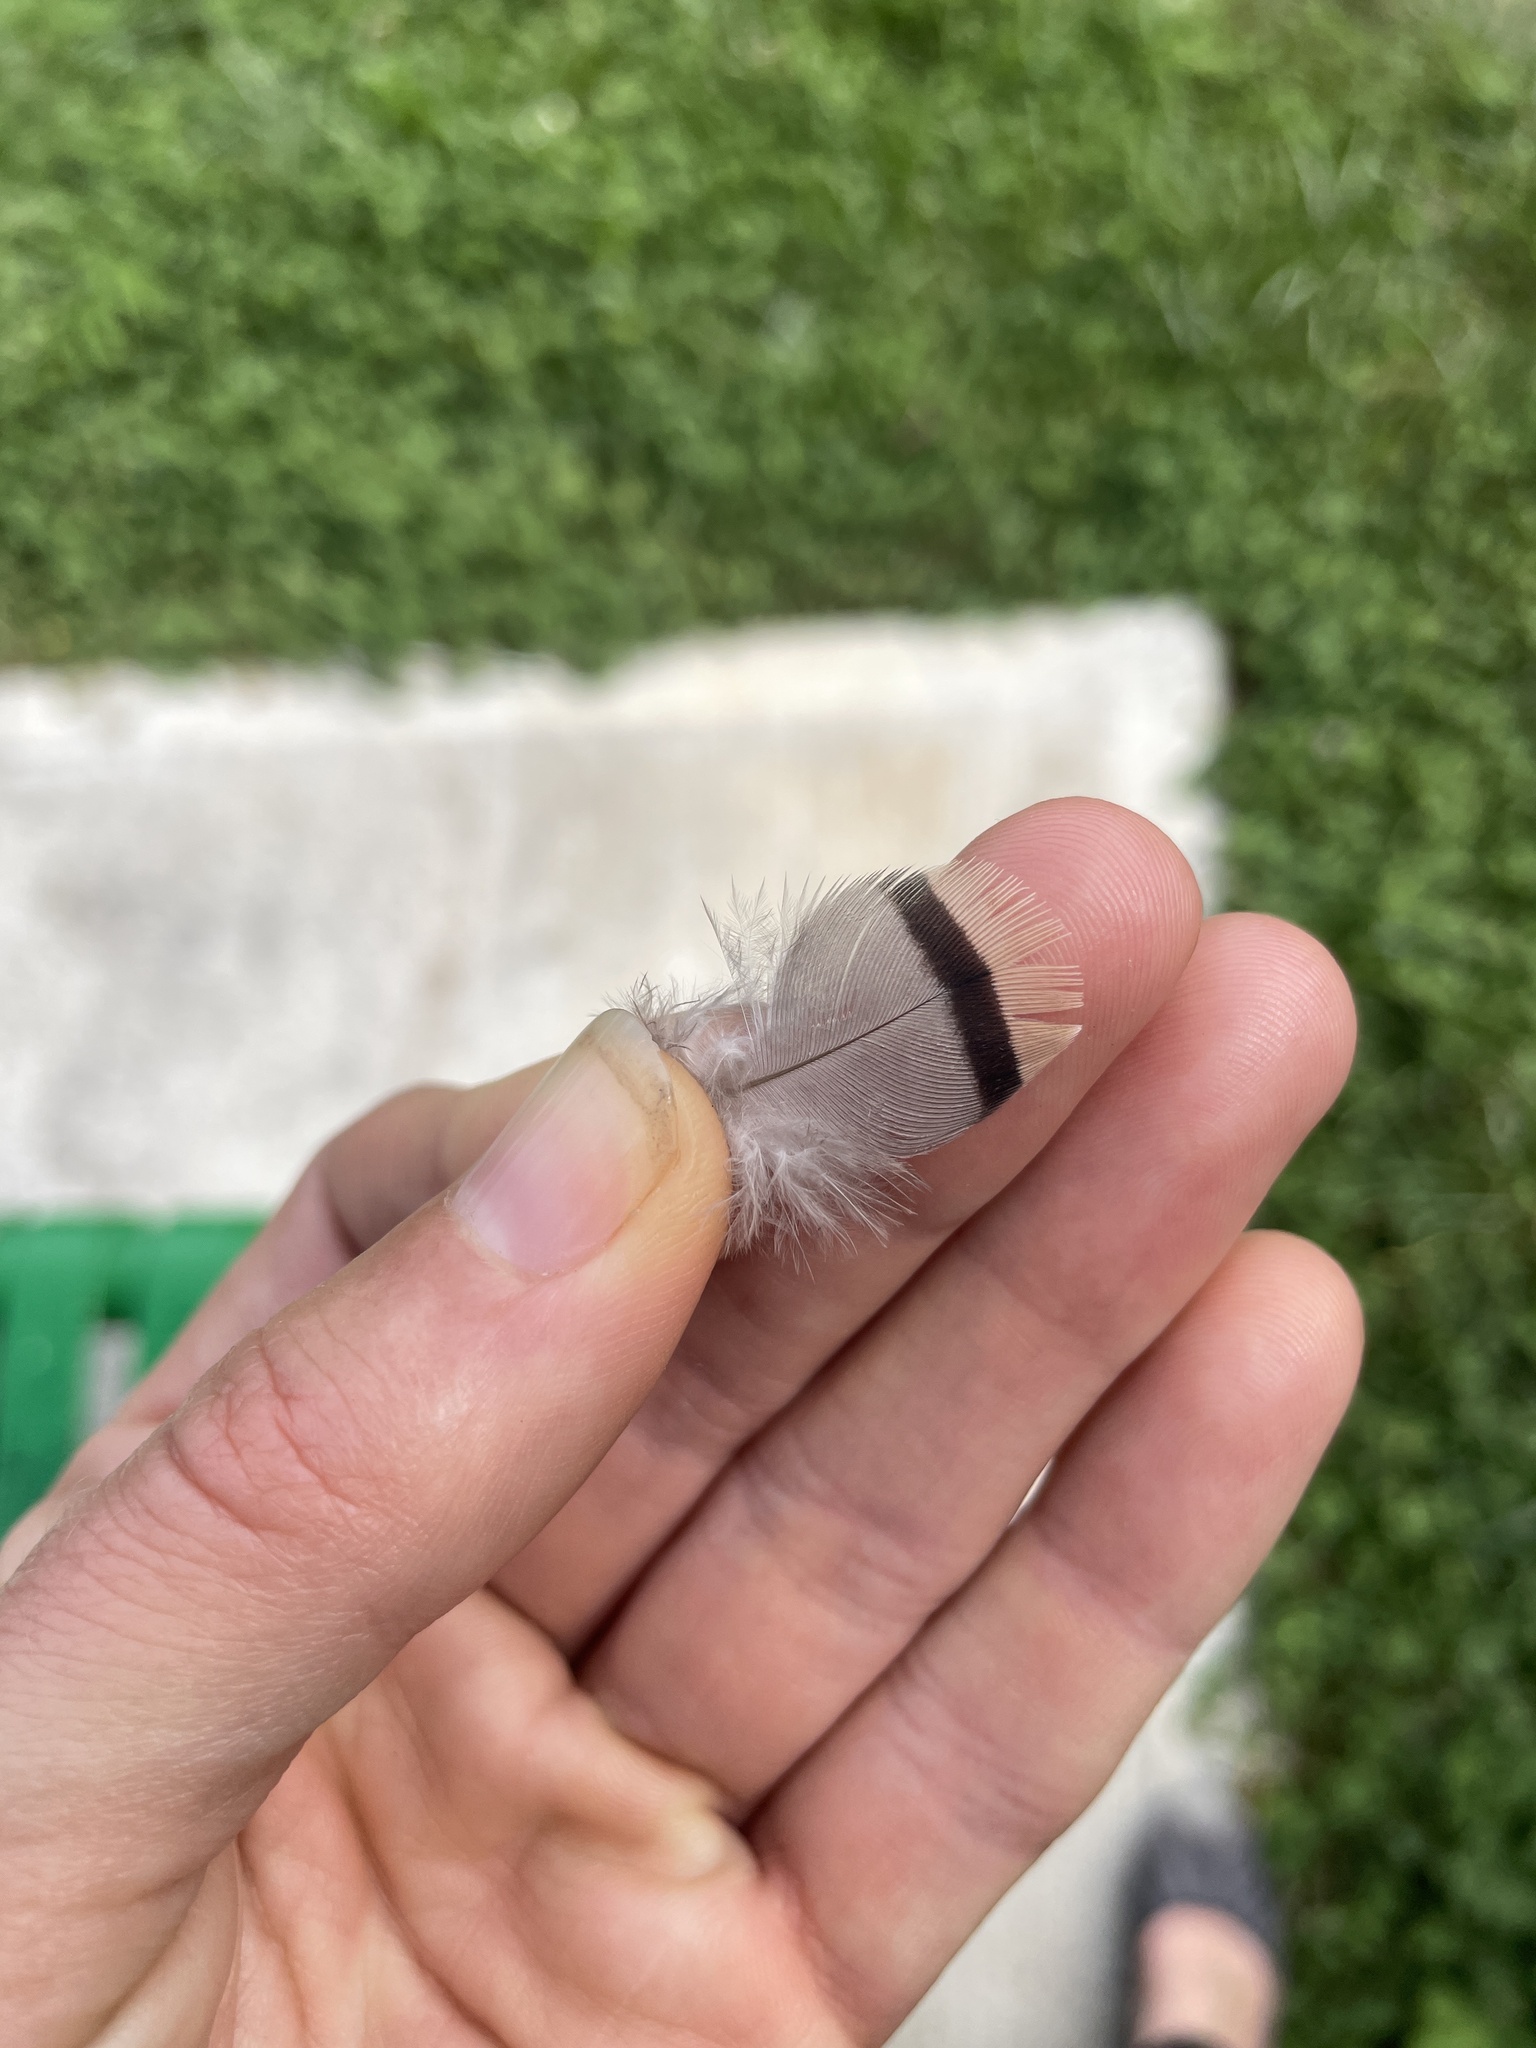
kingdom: Animalia
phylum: Chordata
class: Aves
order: Columbiformes
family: Columbidae
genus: Ocyphaps
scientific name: Ocyphaps lophotes
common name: Crested pigeon
